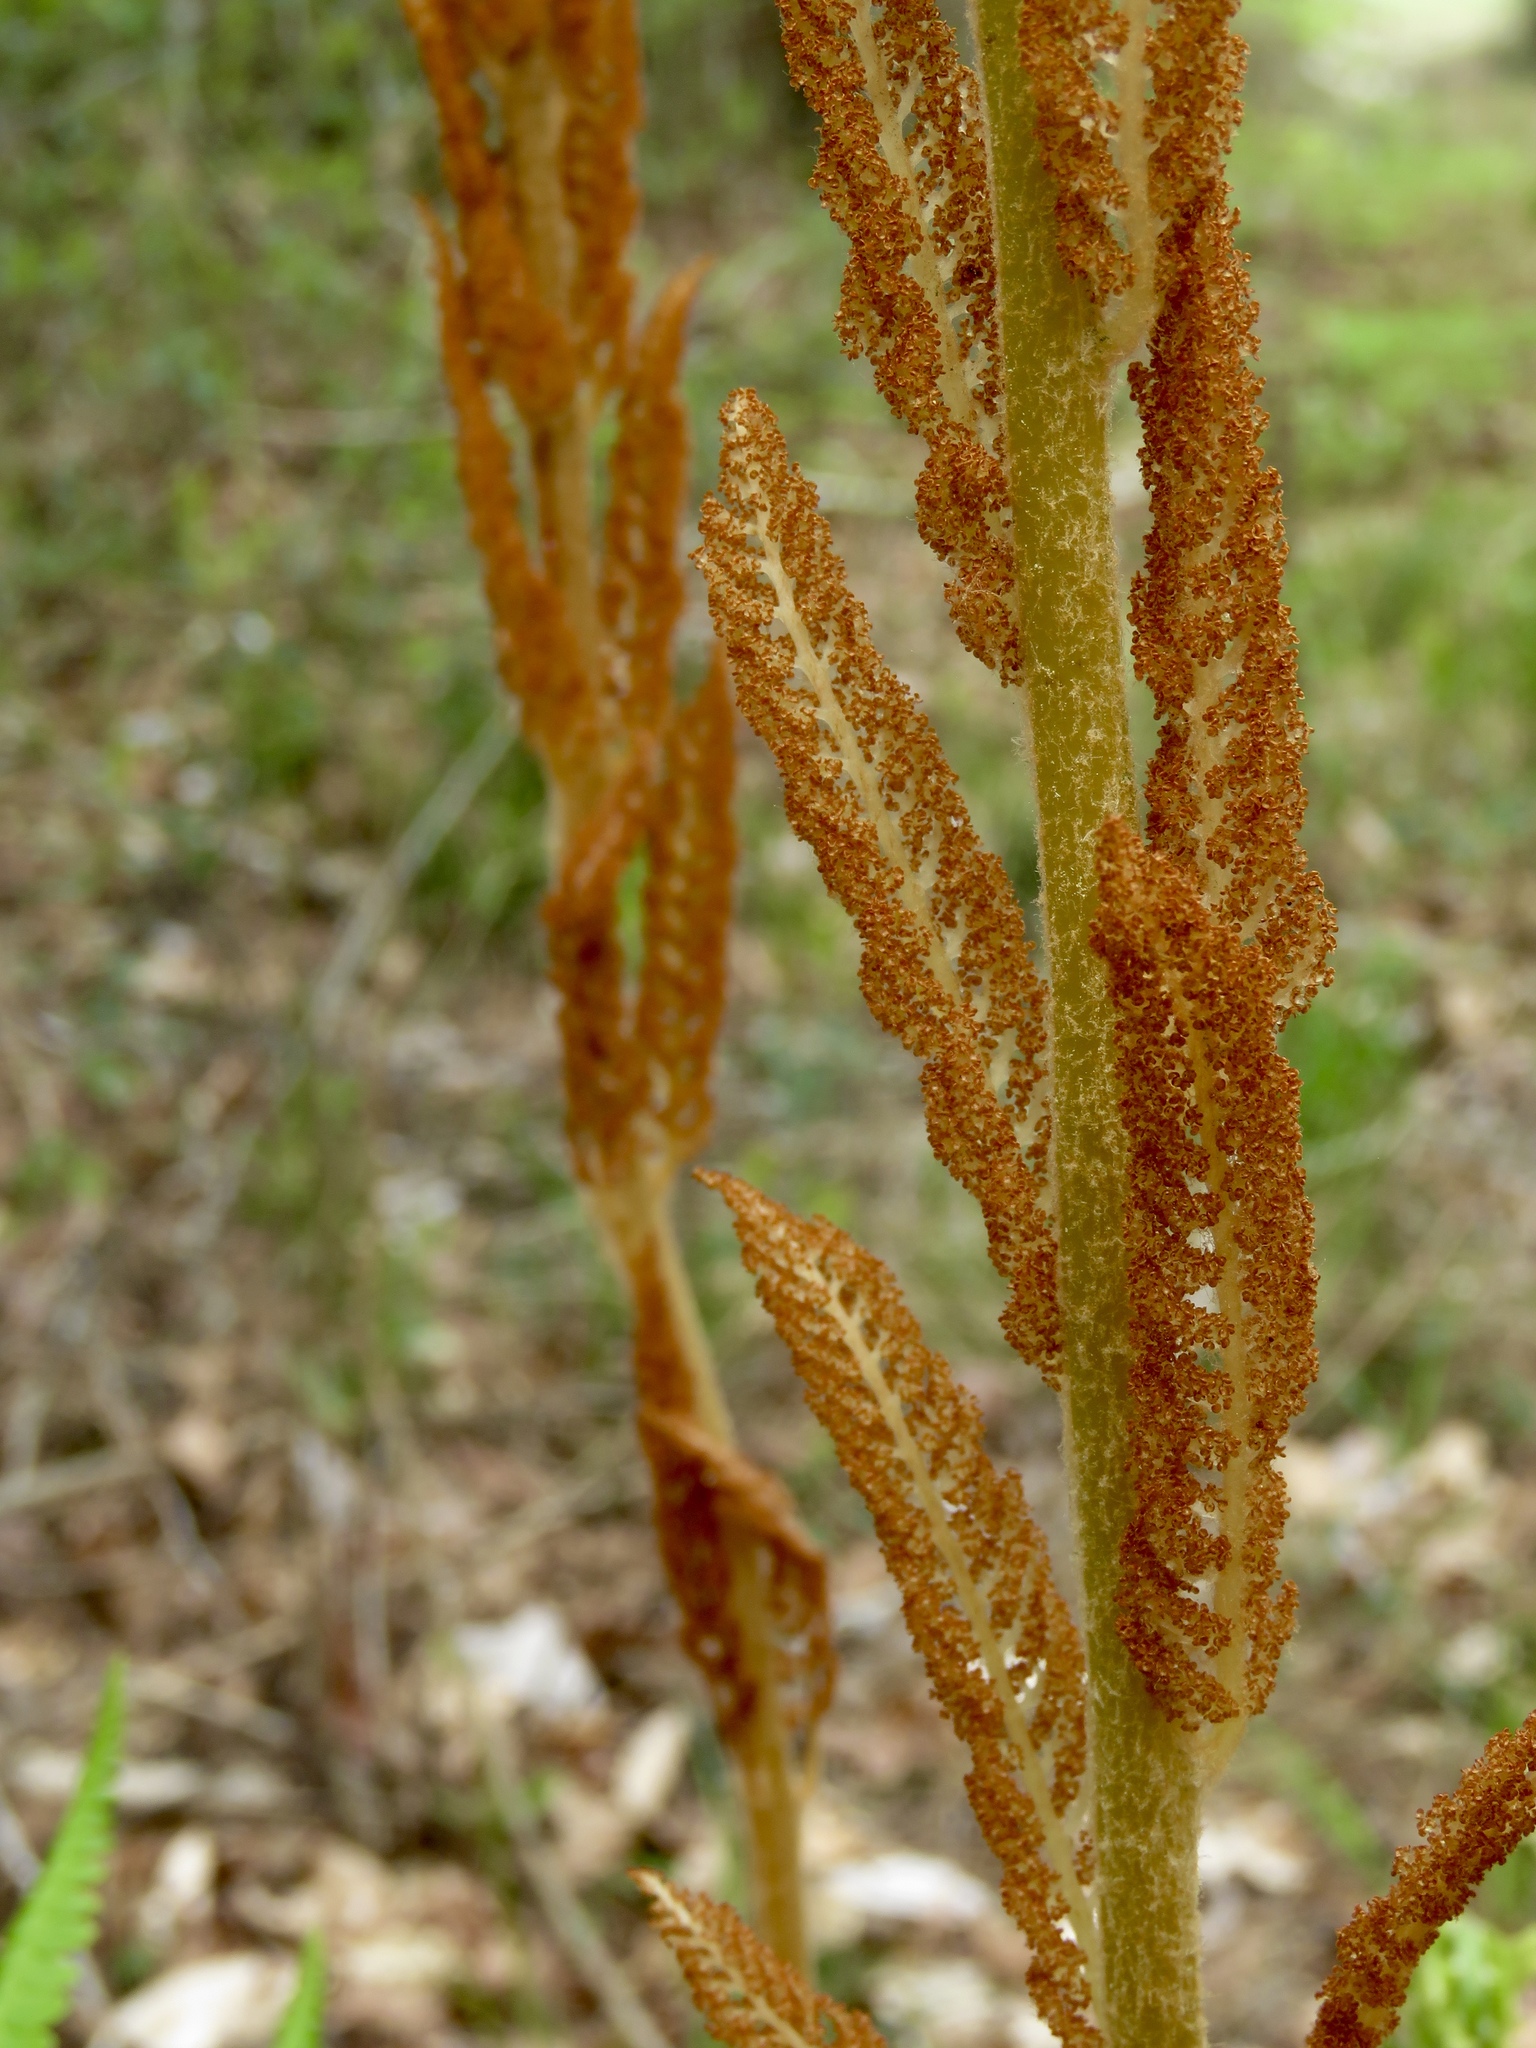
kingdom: Plantae
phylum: Tracheophyta
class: Polypodiopsida
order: Osmundales
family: Osmundaceae
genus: Osmundastrum
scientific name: Osmundastrum cinnamomeum
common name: Cinnamon fern
